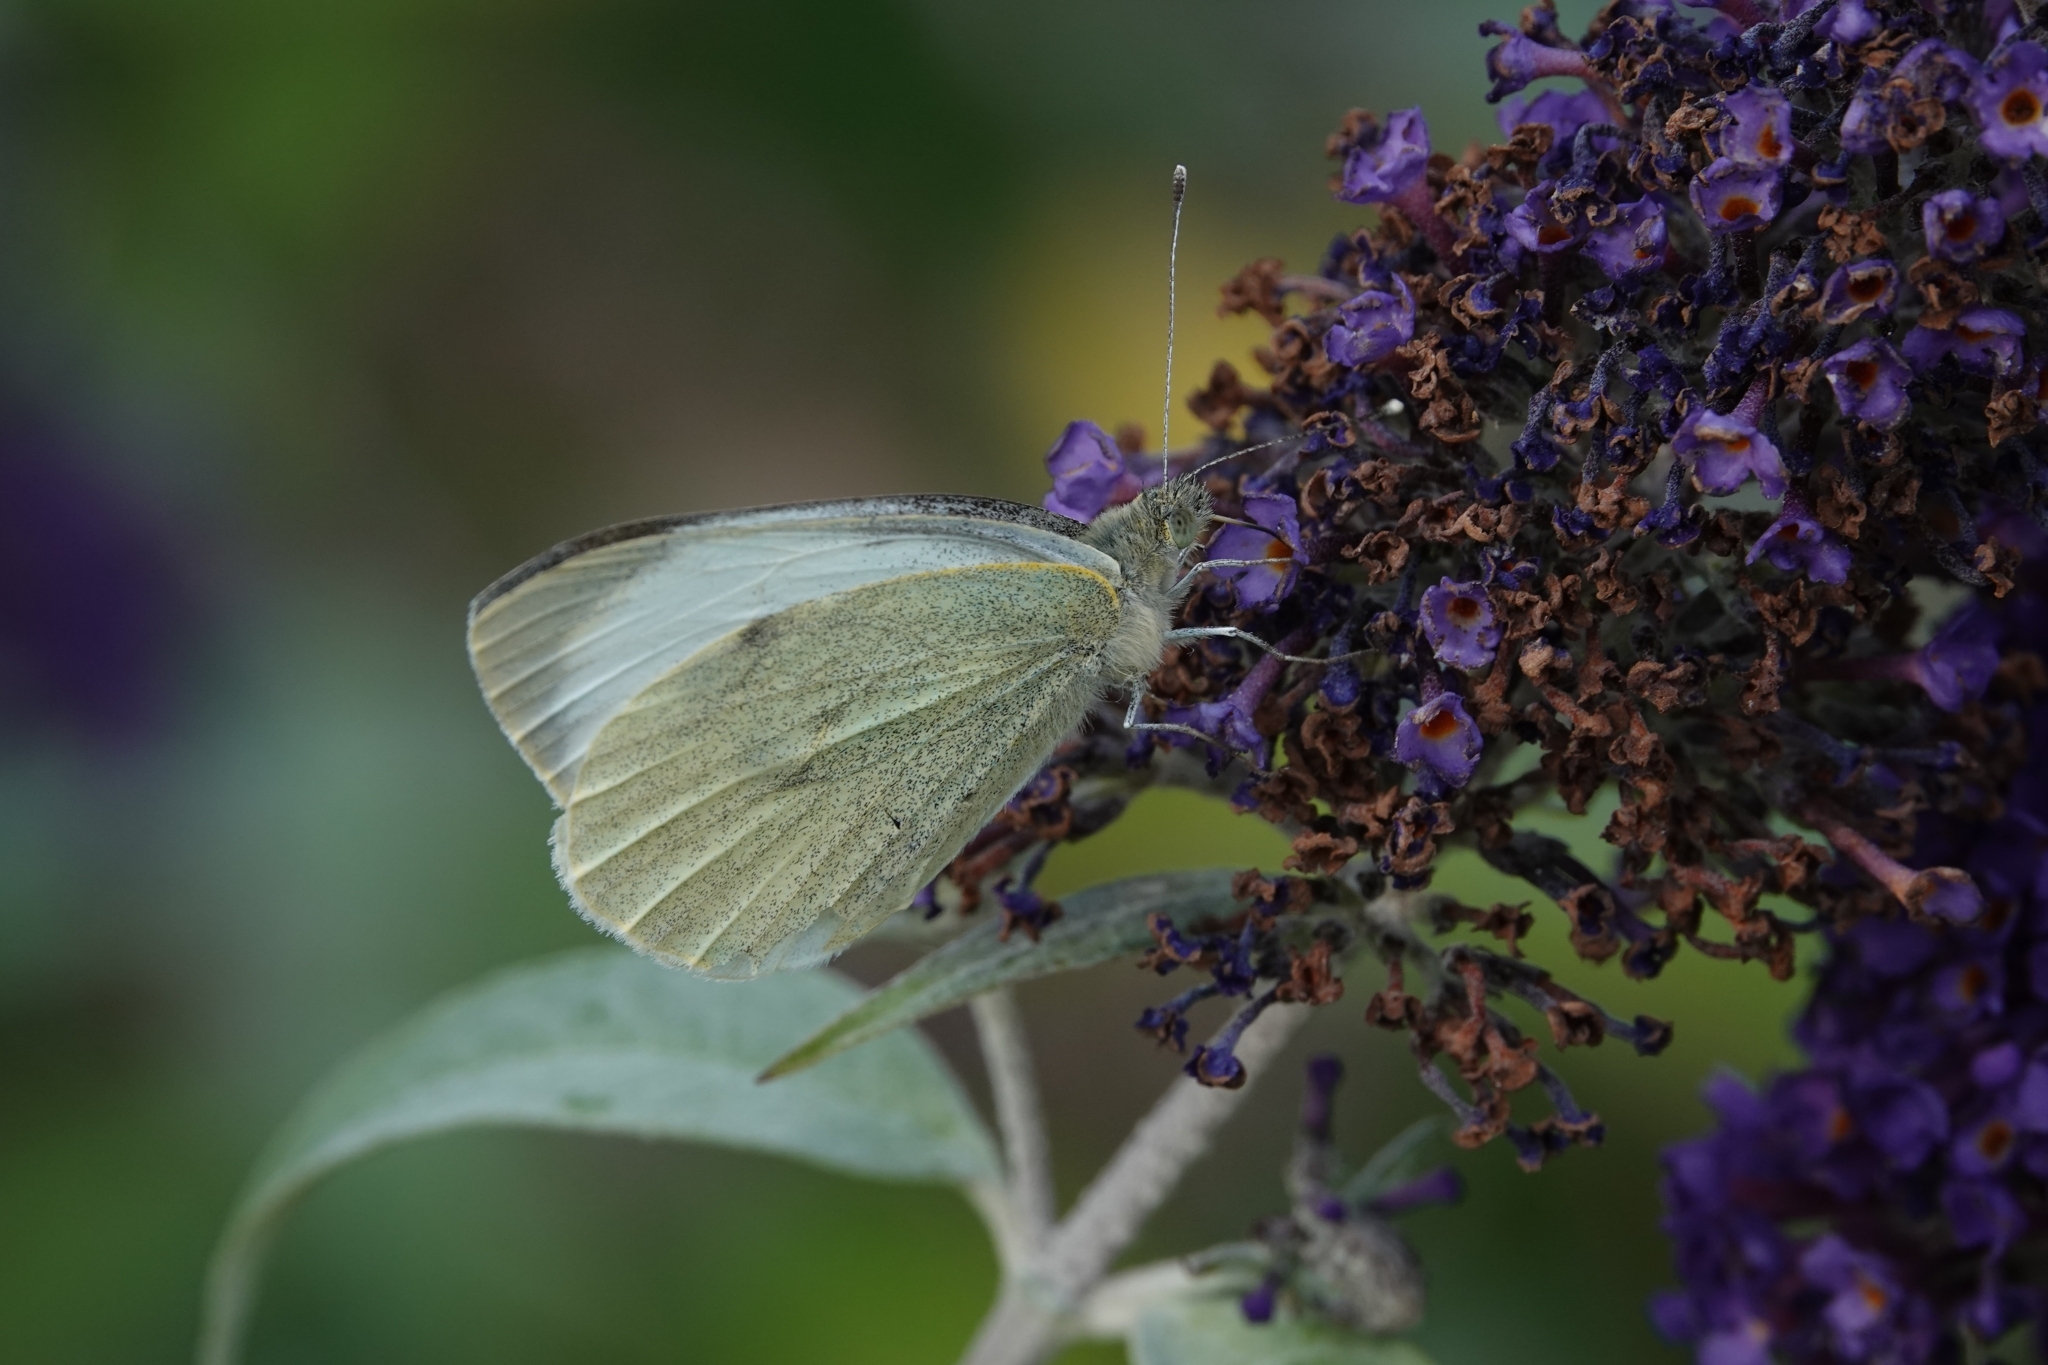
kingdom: Animalia
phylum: Arthropoda
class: Insecta
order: Lepidoptera
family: Pieridae
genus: Pieris
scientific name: Pieris brassicae
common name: Large white
